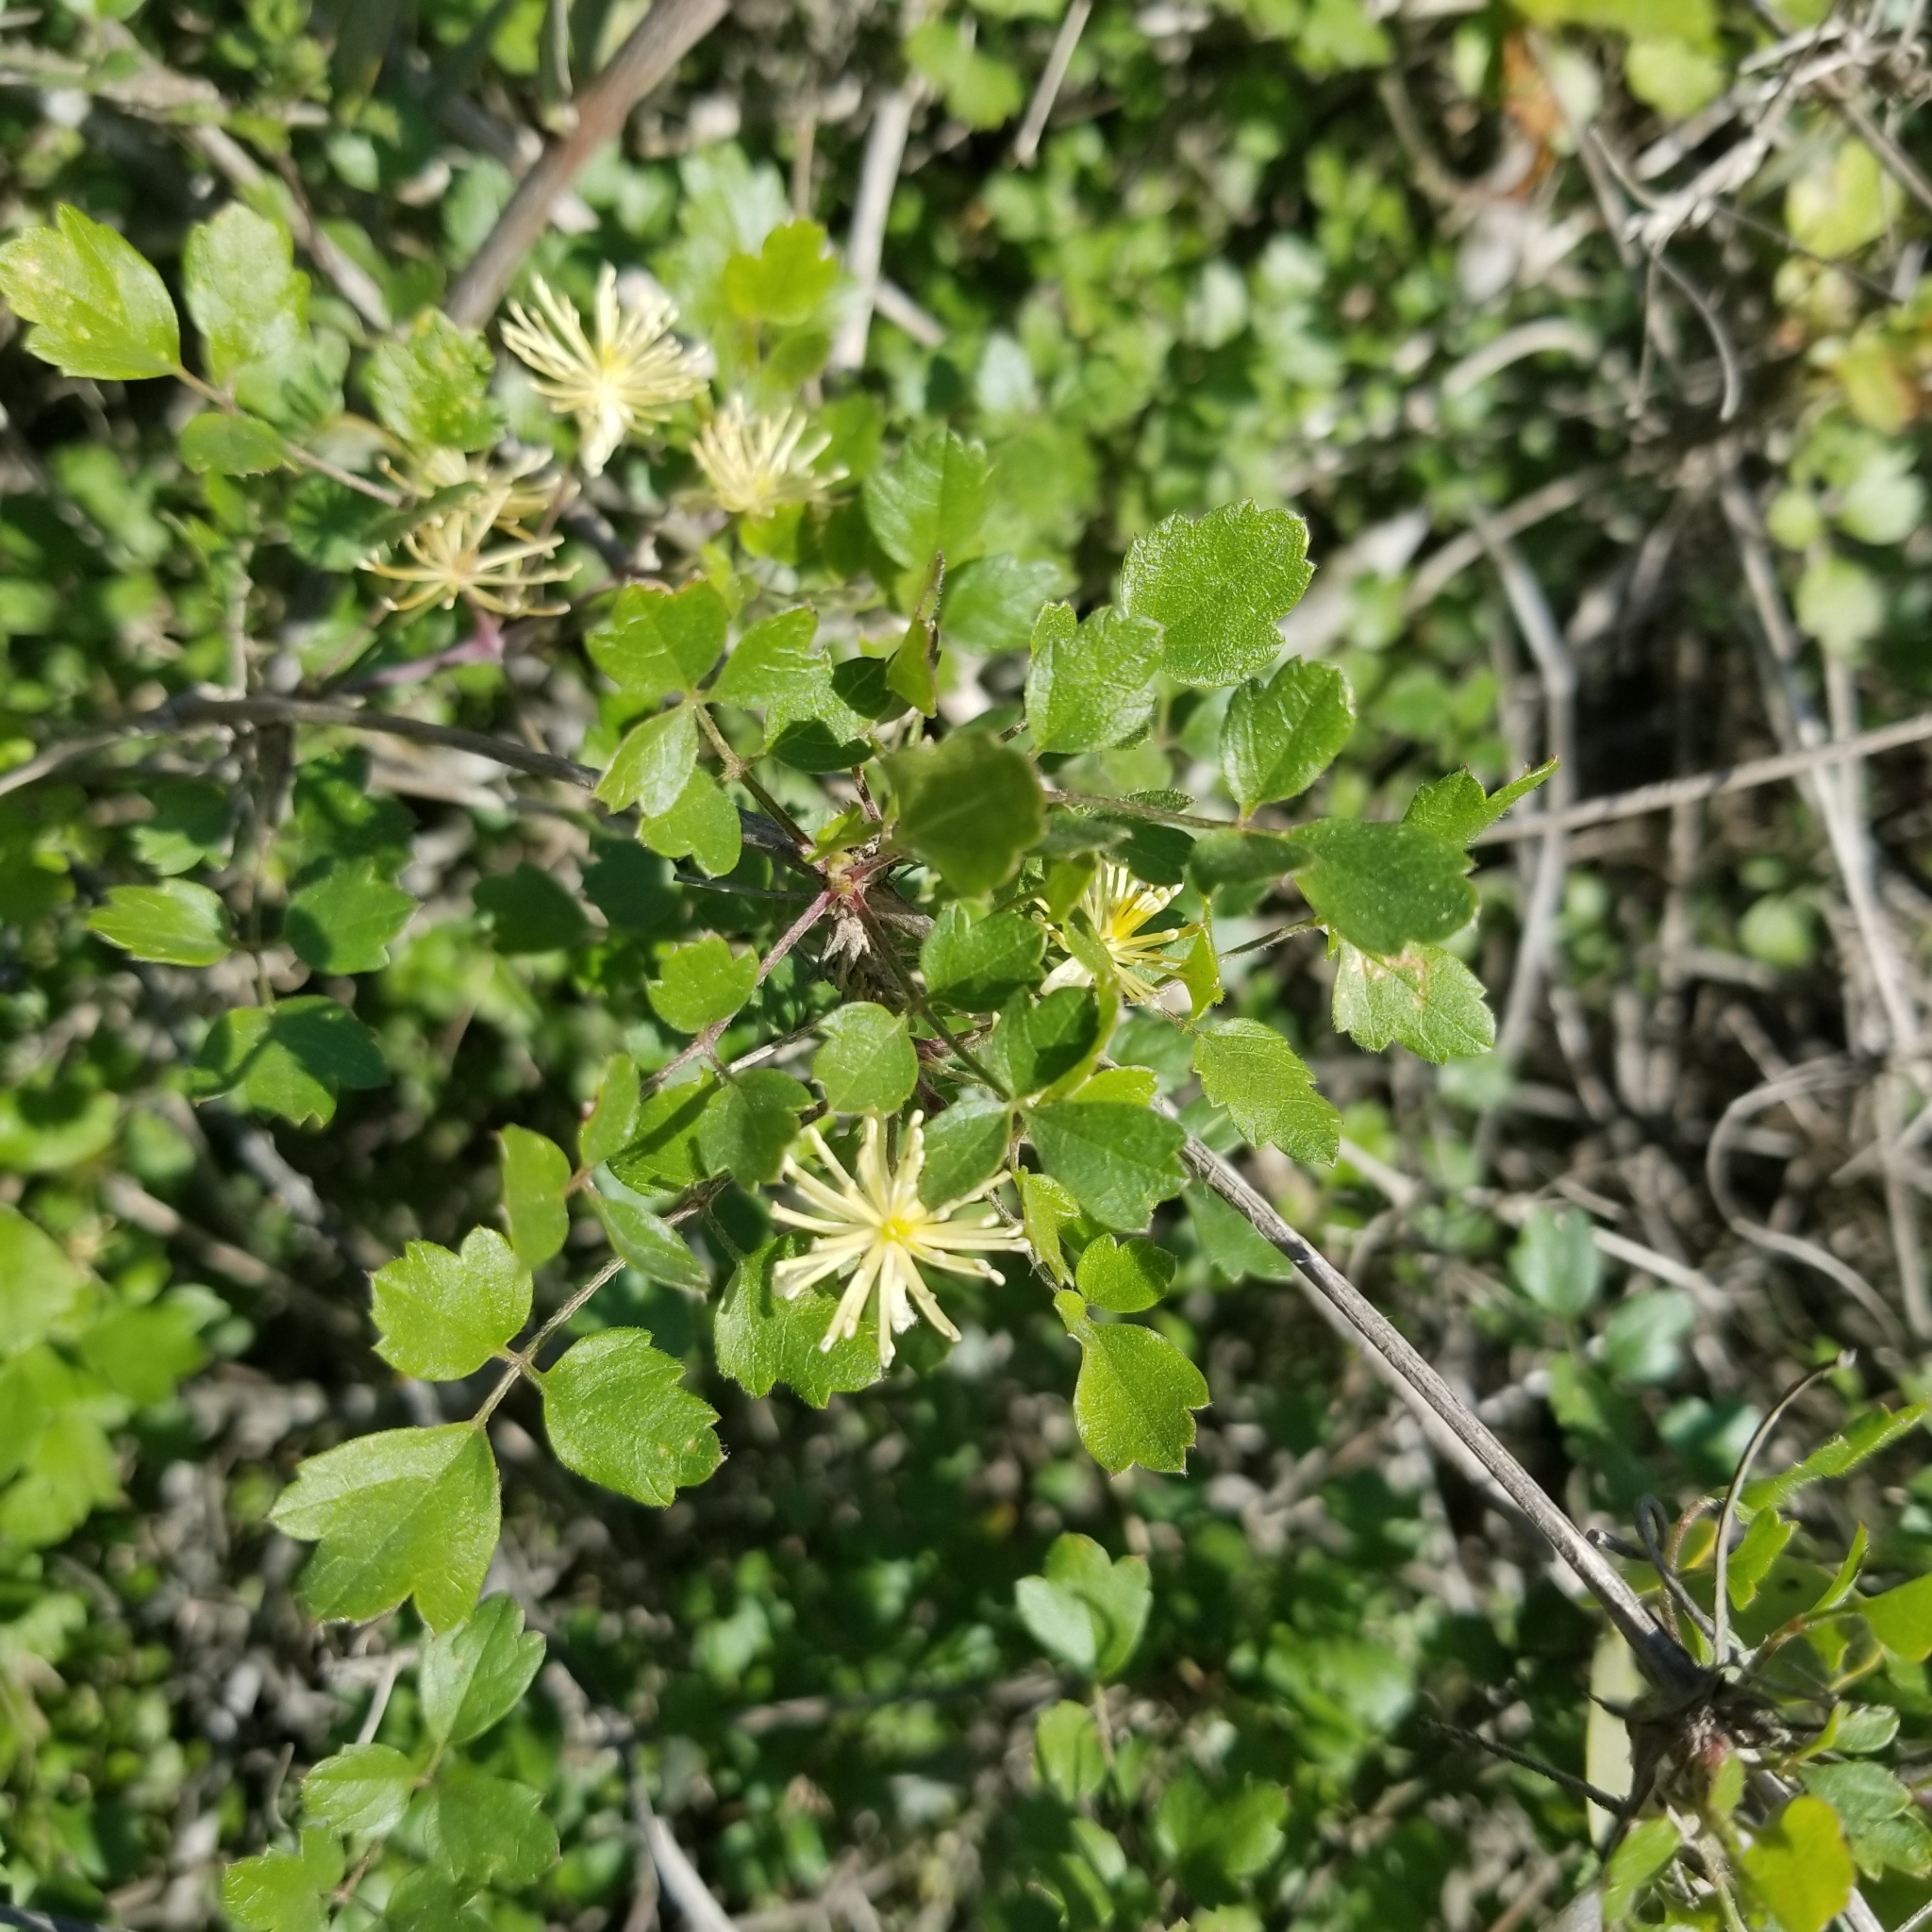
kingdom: Plantae
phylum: Tracheophyta
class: Magnoliopsida
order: Ranunculales
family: Ranunculaceae
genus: Clematis
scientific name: Clematis pauciflora
